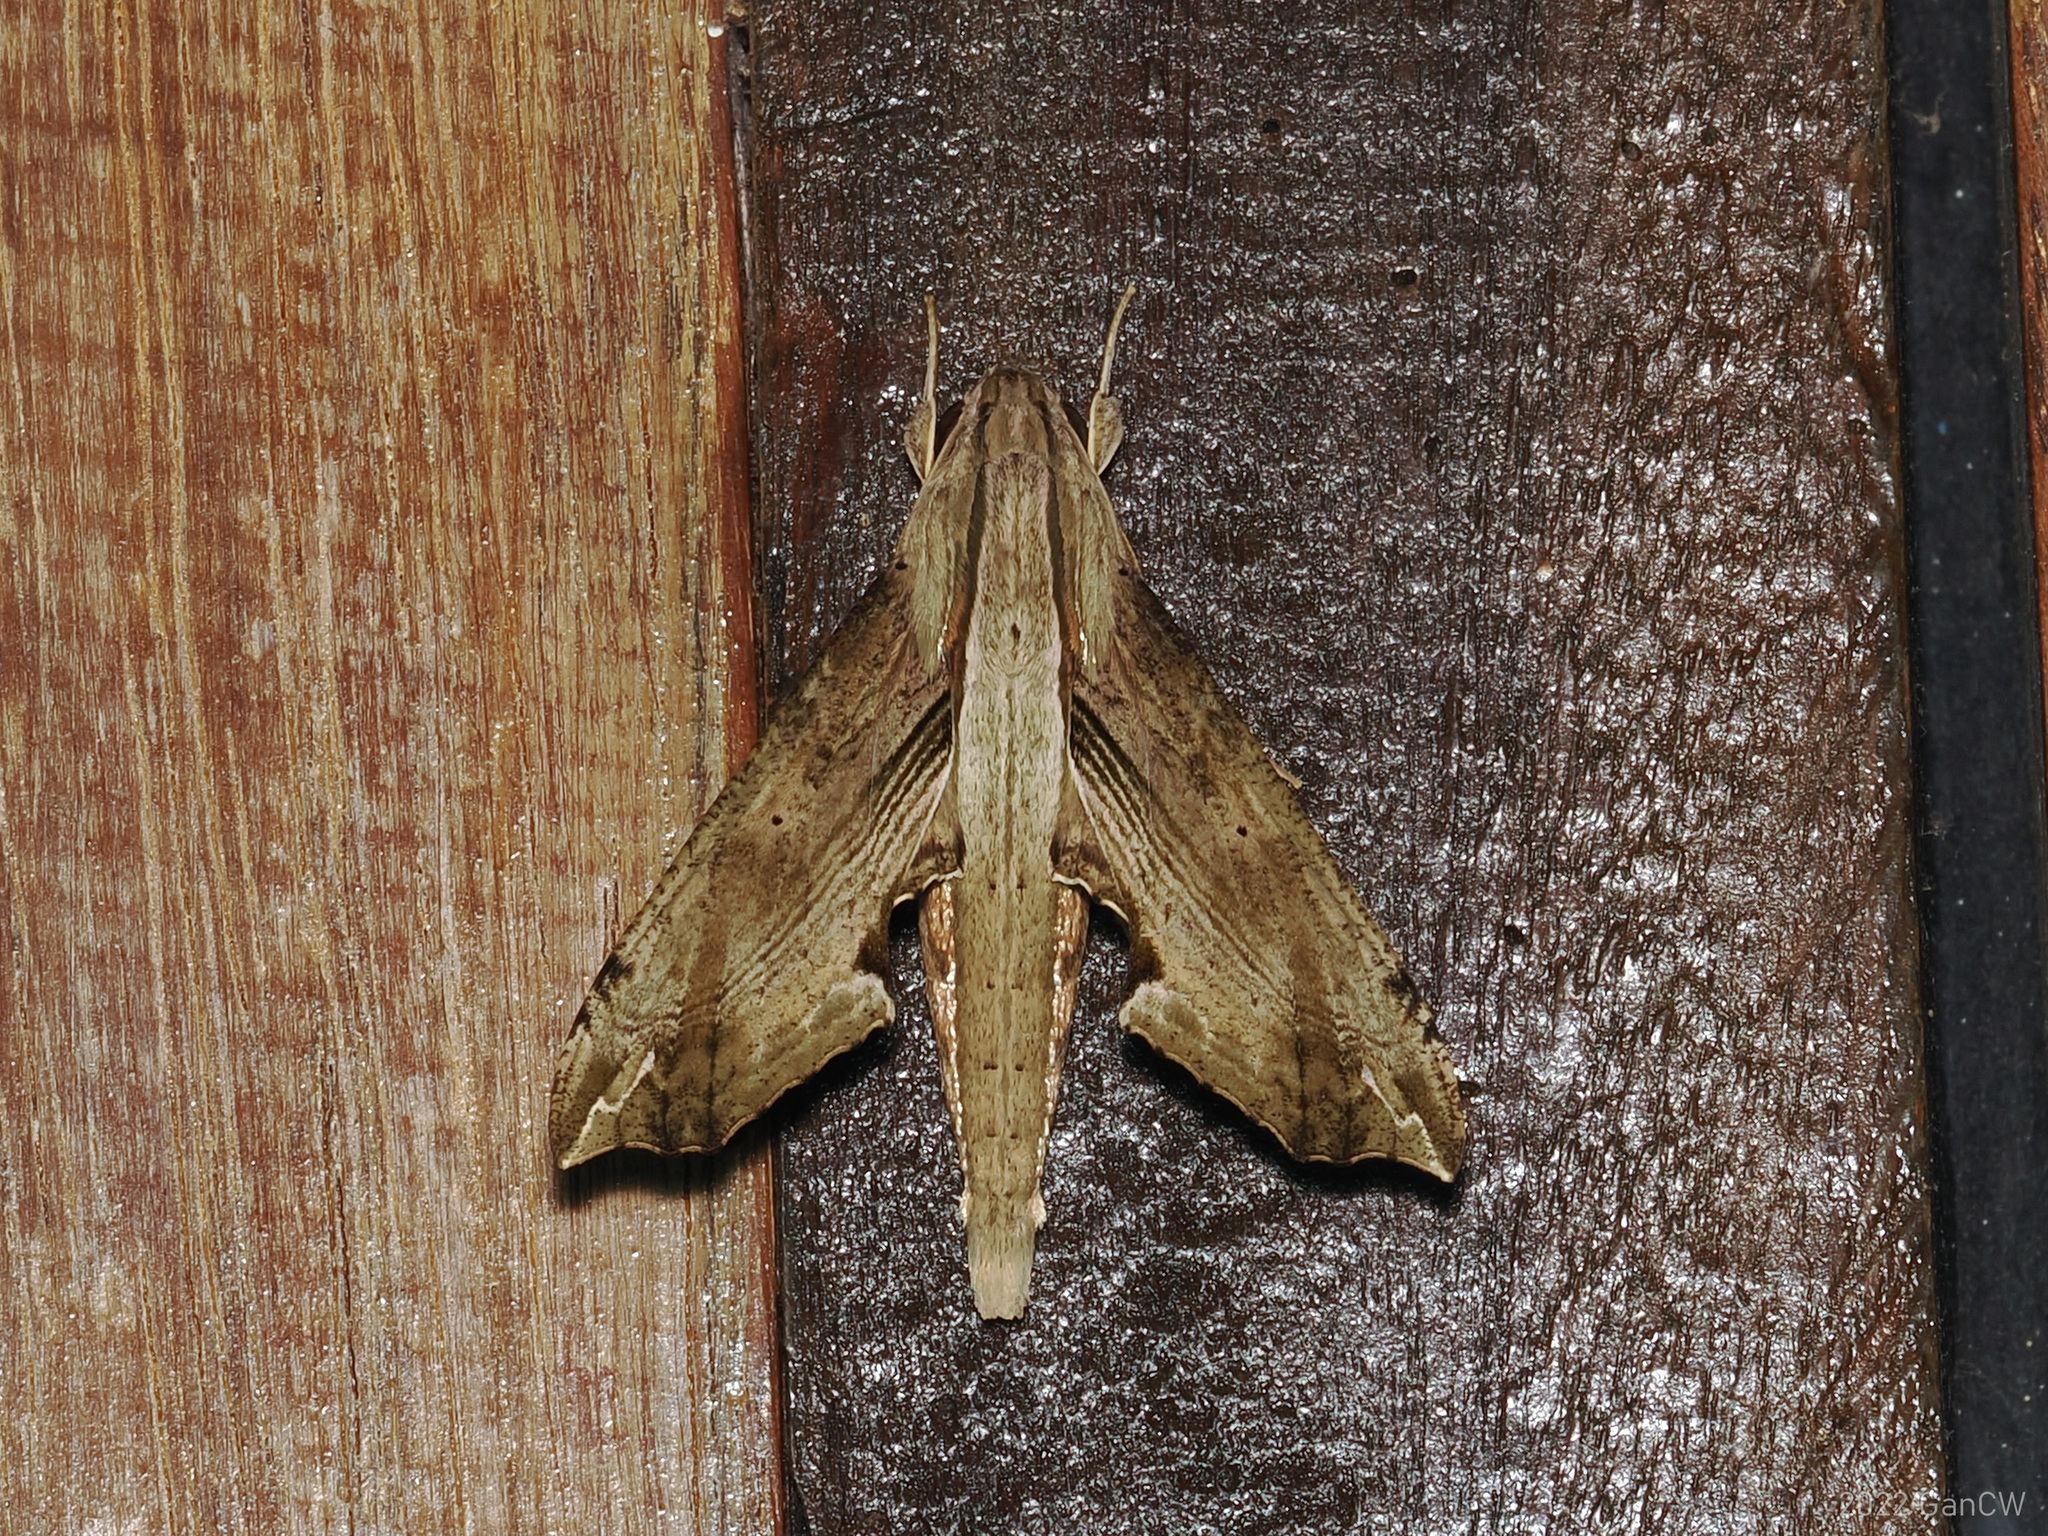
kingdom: Animalia
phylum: Arthropoda
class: Insecta
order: Lepidoptera
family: Sphingidae
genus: Eupanacra
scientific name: Eupanacra regularis
